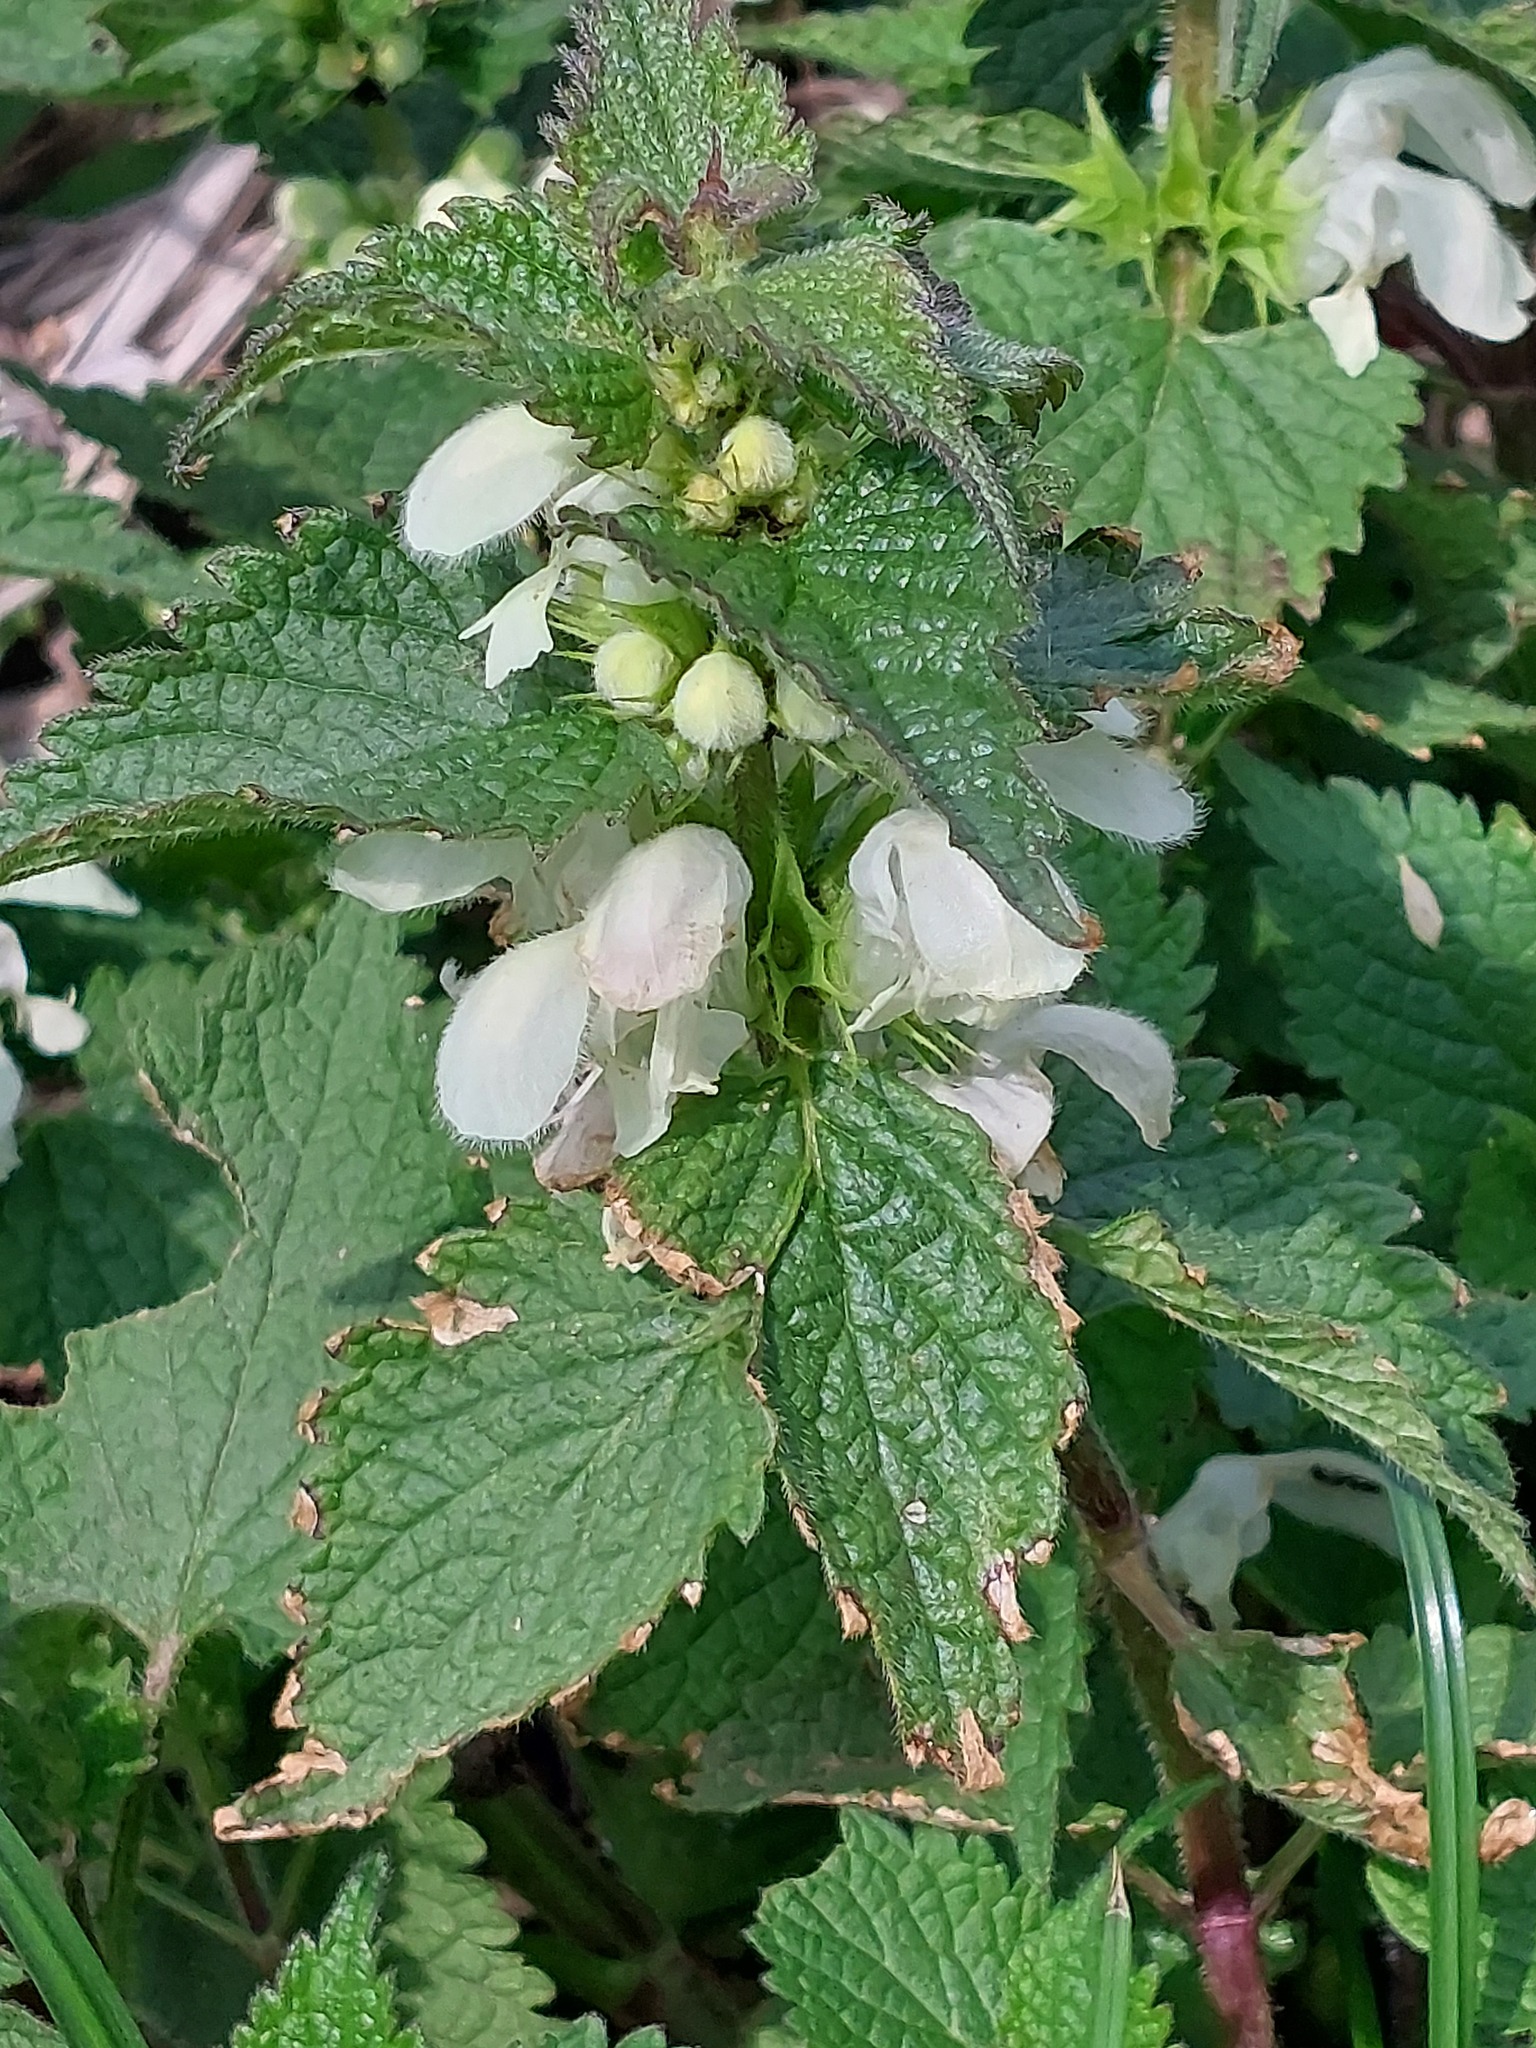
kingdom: Plantae
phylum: Tracheophyta
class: Magnoliopsida
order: Lamiales
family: Lamiaceae
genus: Lamium
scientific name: Lamium album
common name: White dead-nettle
